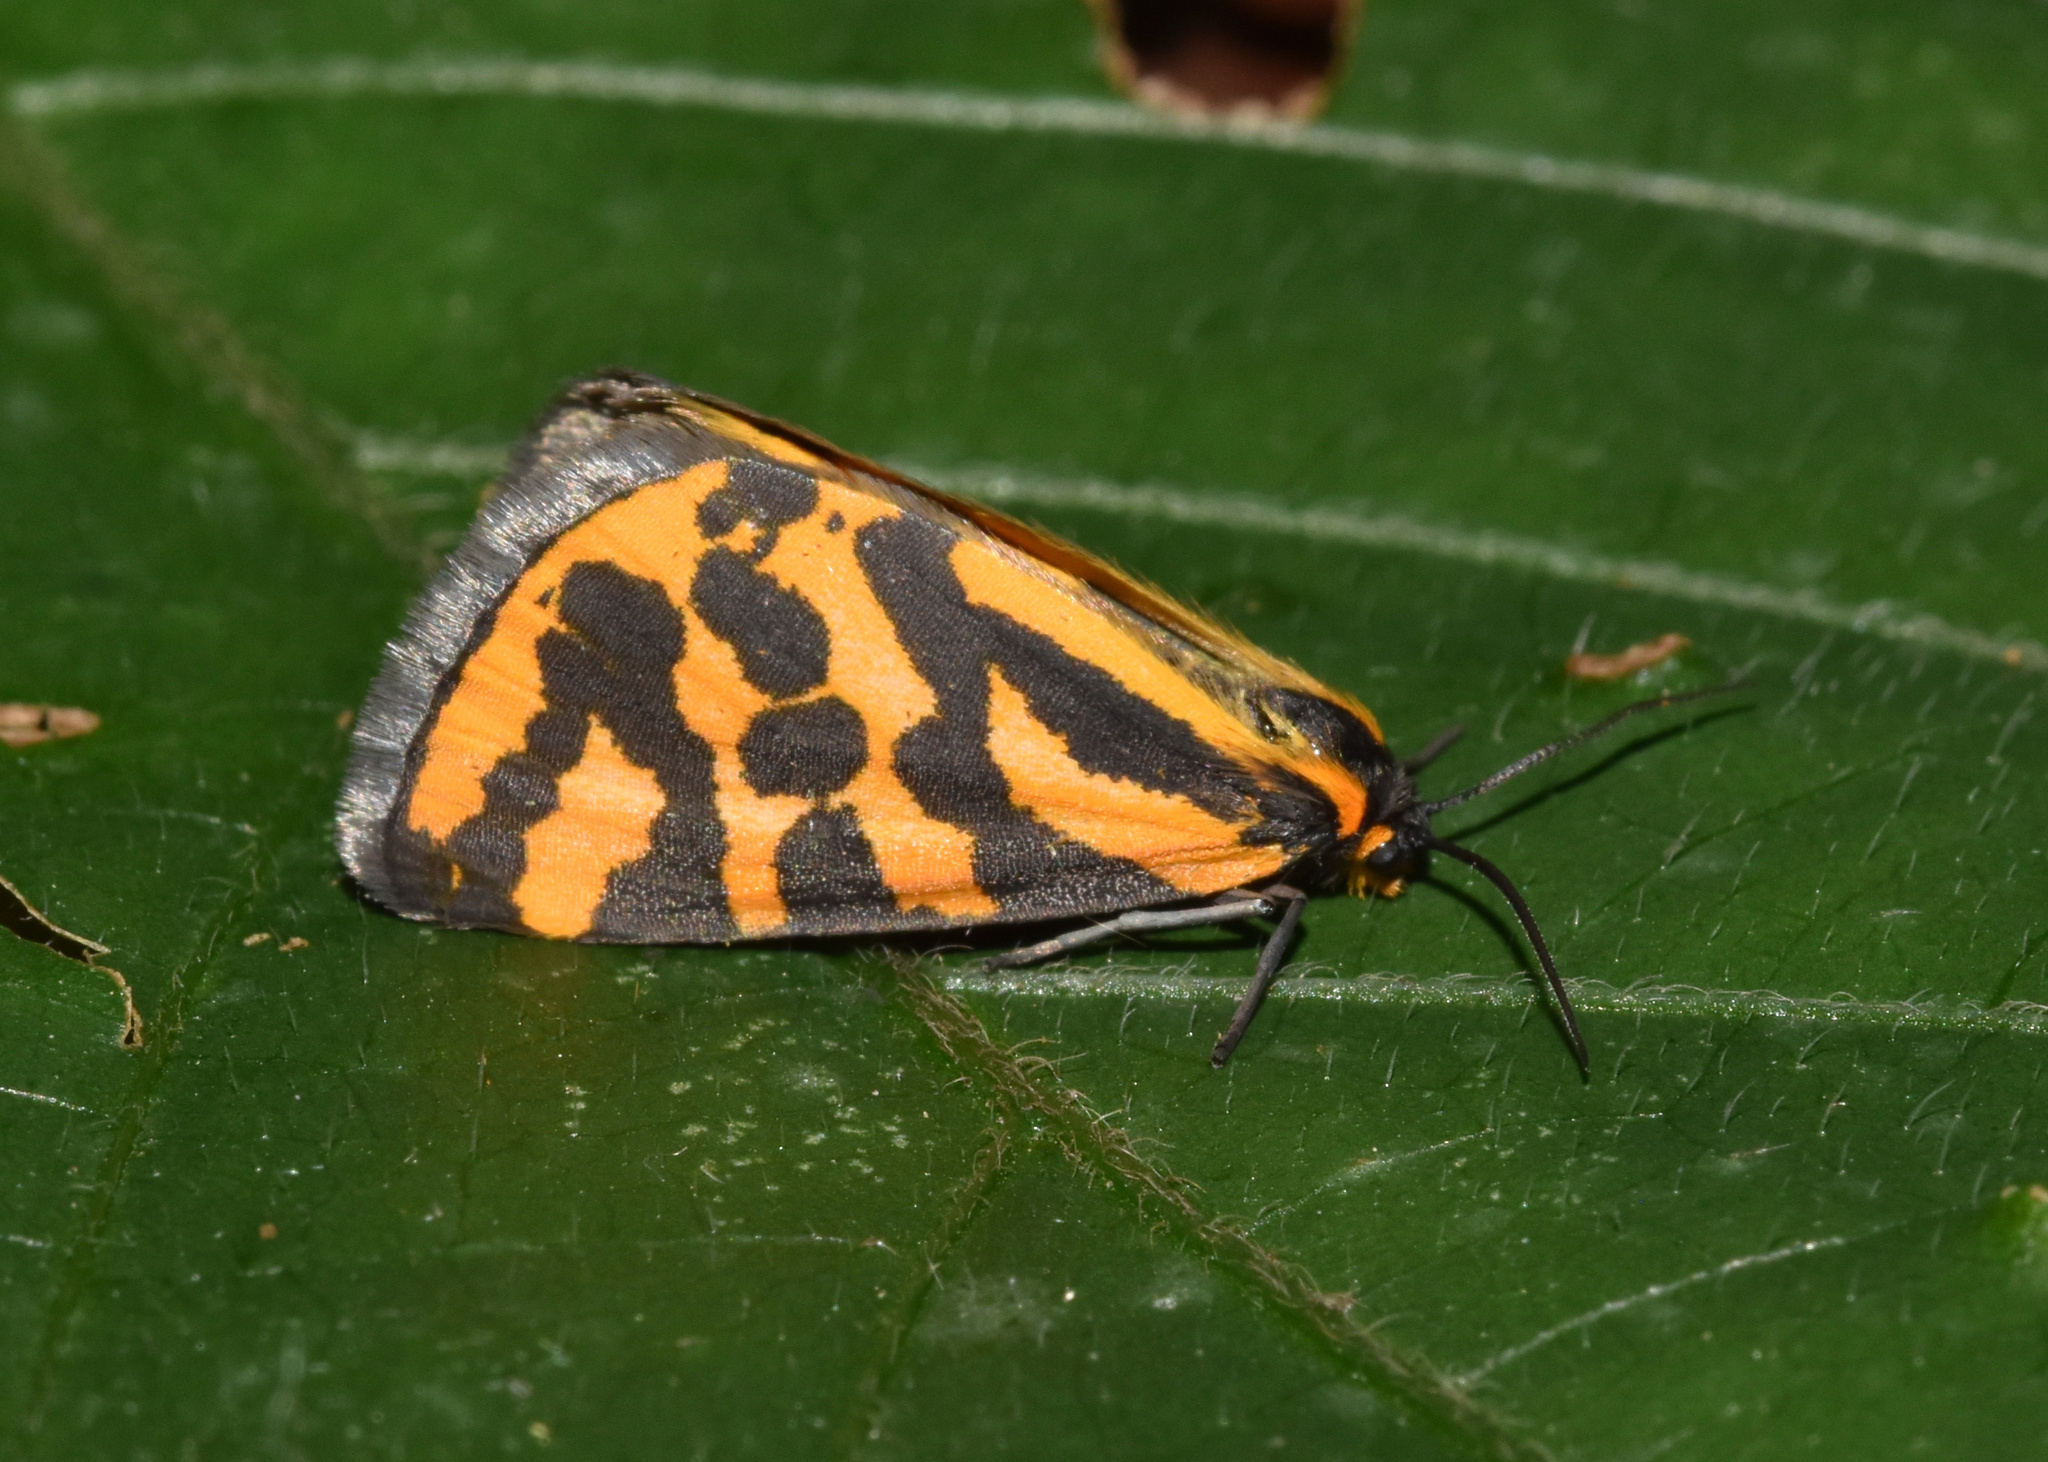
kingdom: Animalia
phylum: Arthropoda
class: Insecta
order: Lepidoptera
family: Geometridae
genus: Durbana
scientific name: Durbana setinata
